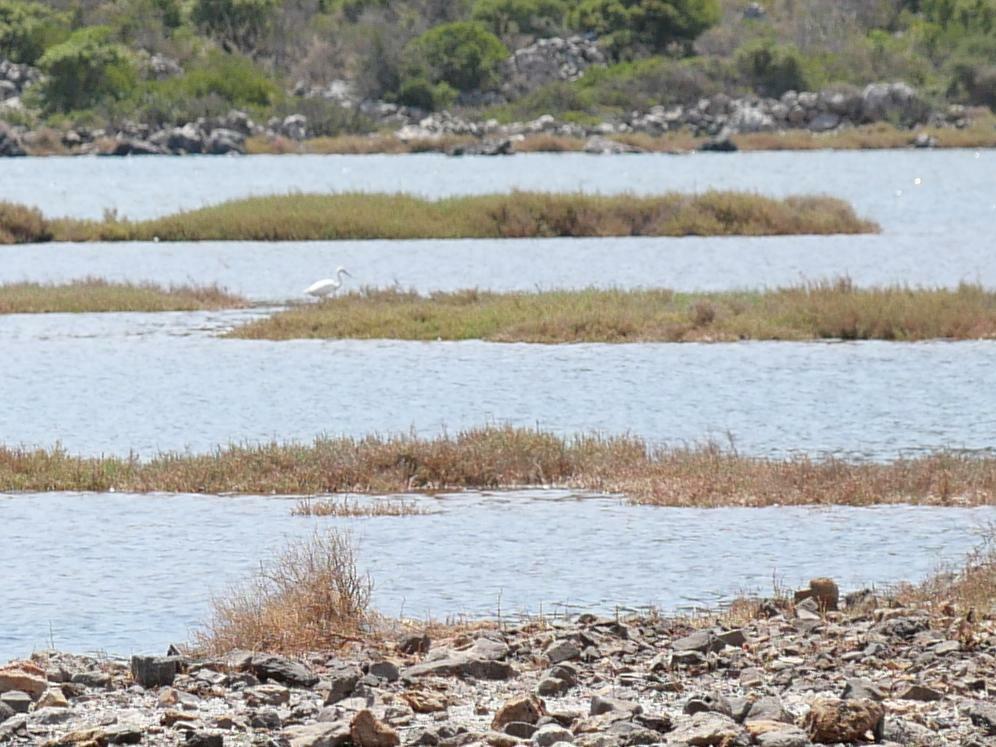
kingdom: Animalia
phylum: Chordata
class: Aves
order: Pelecaniformes
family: Ardeidae
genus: Egretta
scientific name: Egretta garzetta
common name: Little egret
